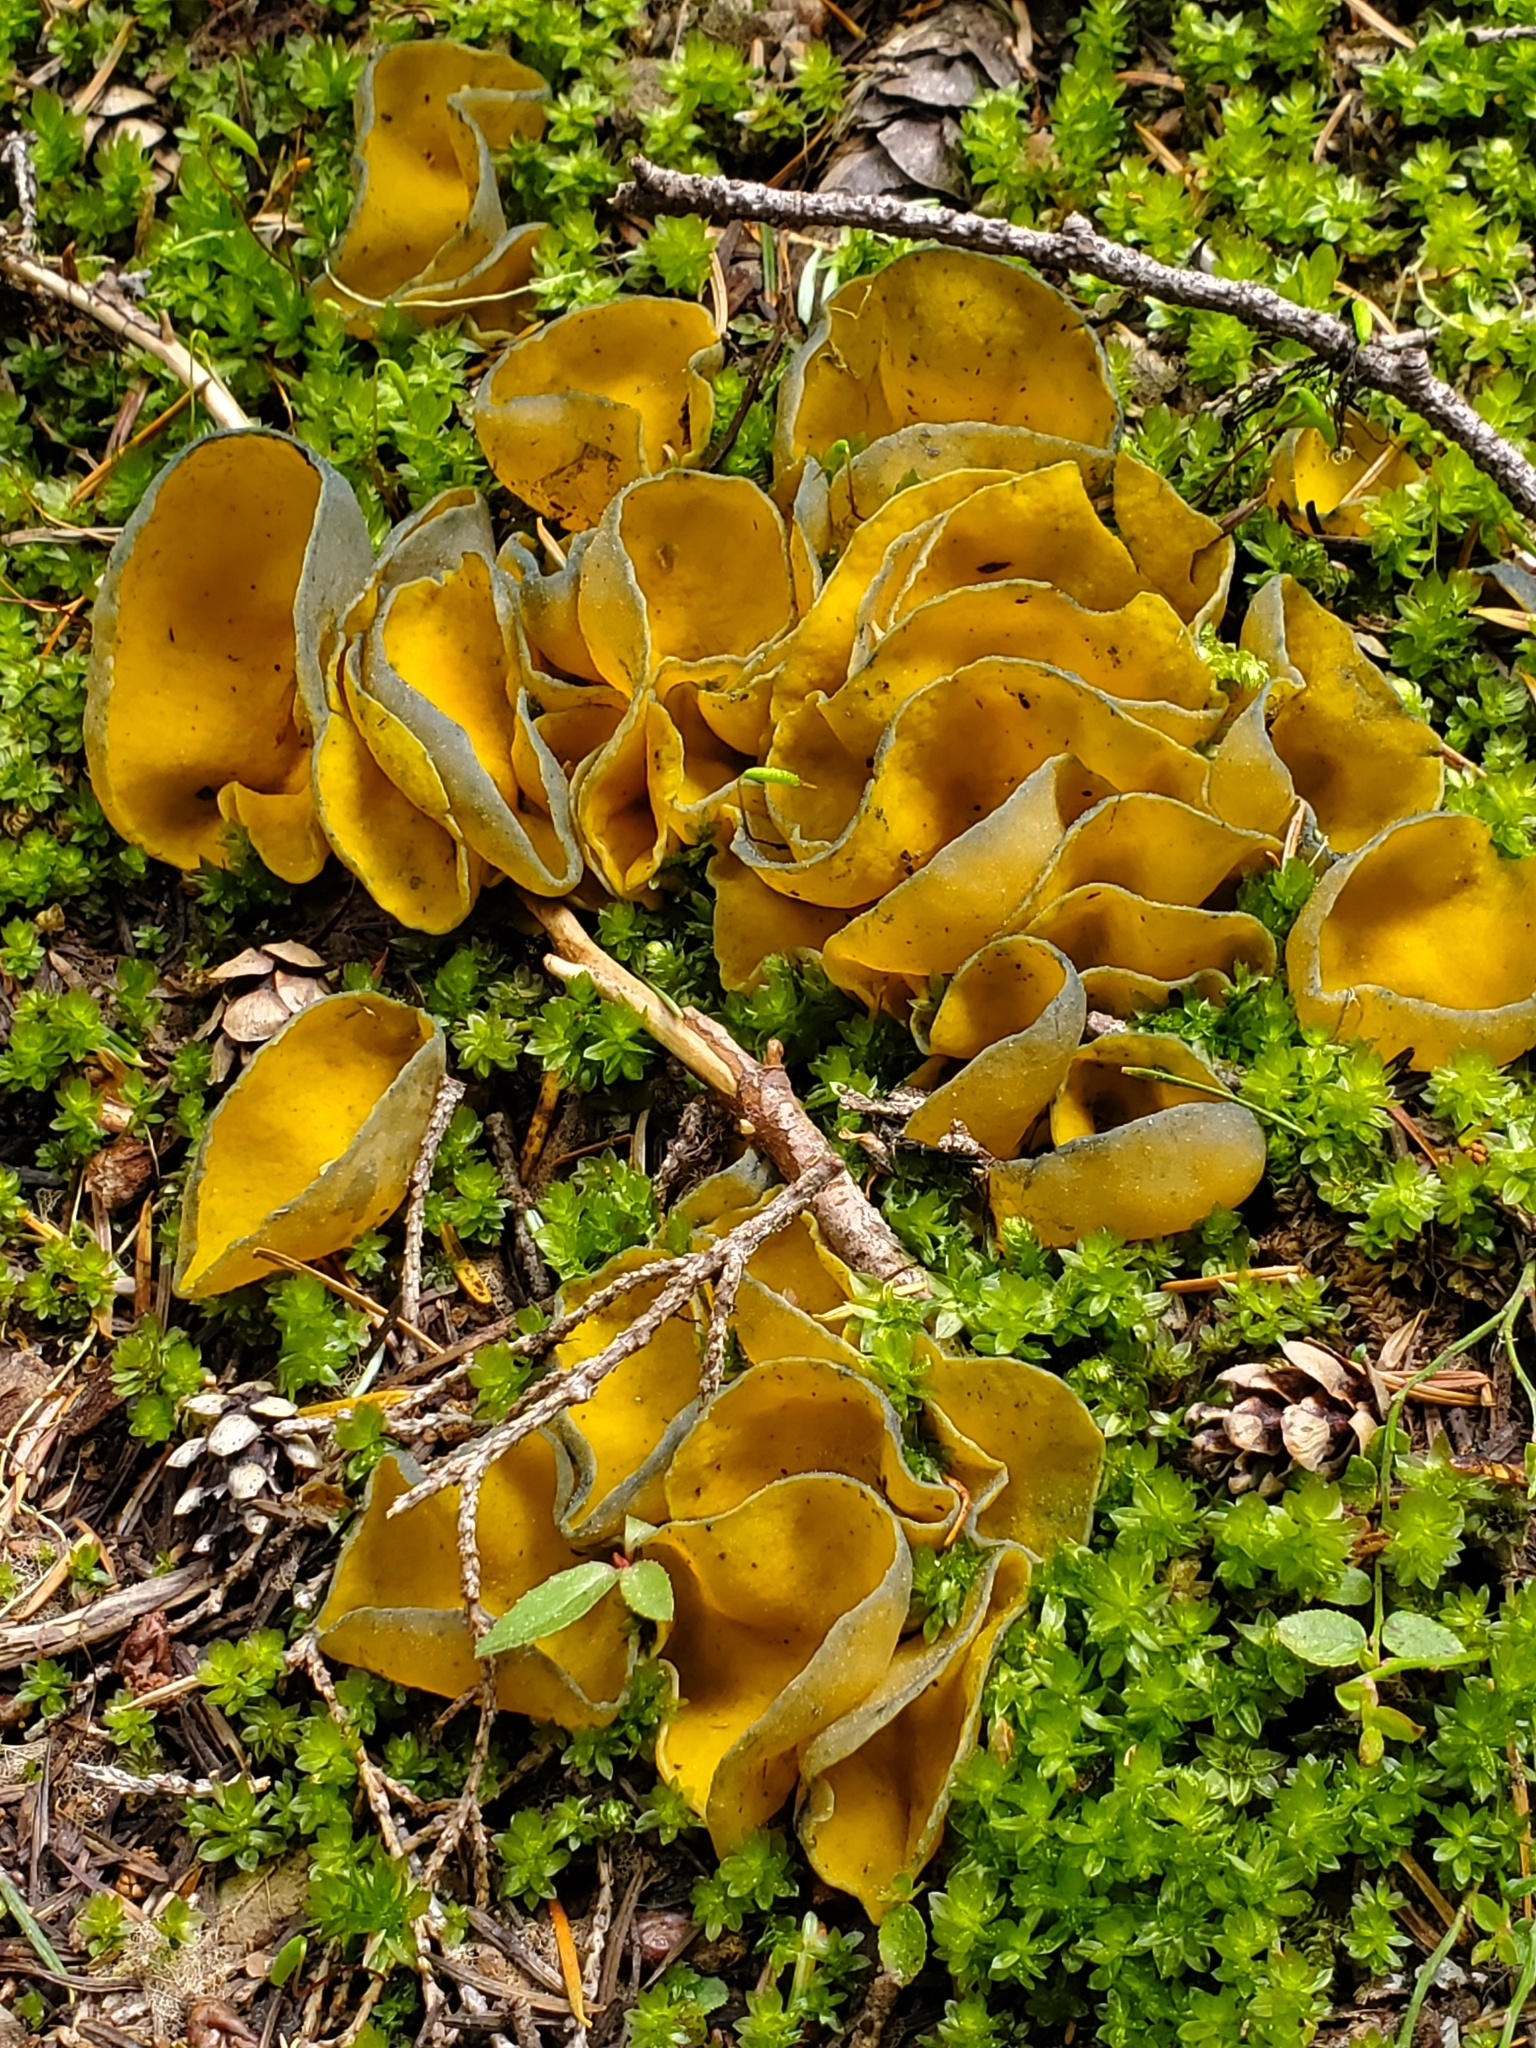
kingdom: Fungi
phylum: Ascomycota
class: Pezizomycetes
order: Pezizales
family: Caloscyphaceae
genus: Caloscypha
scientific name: Caloscypha fulgens
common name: Golden cup
